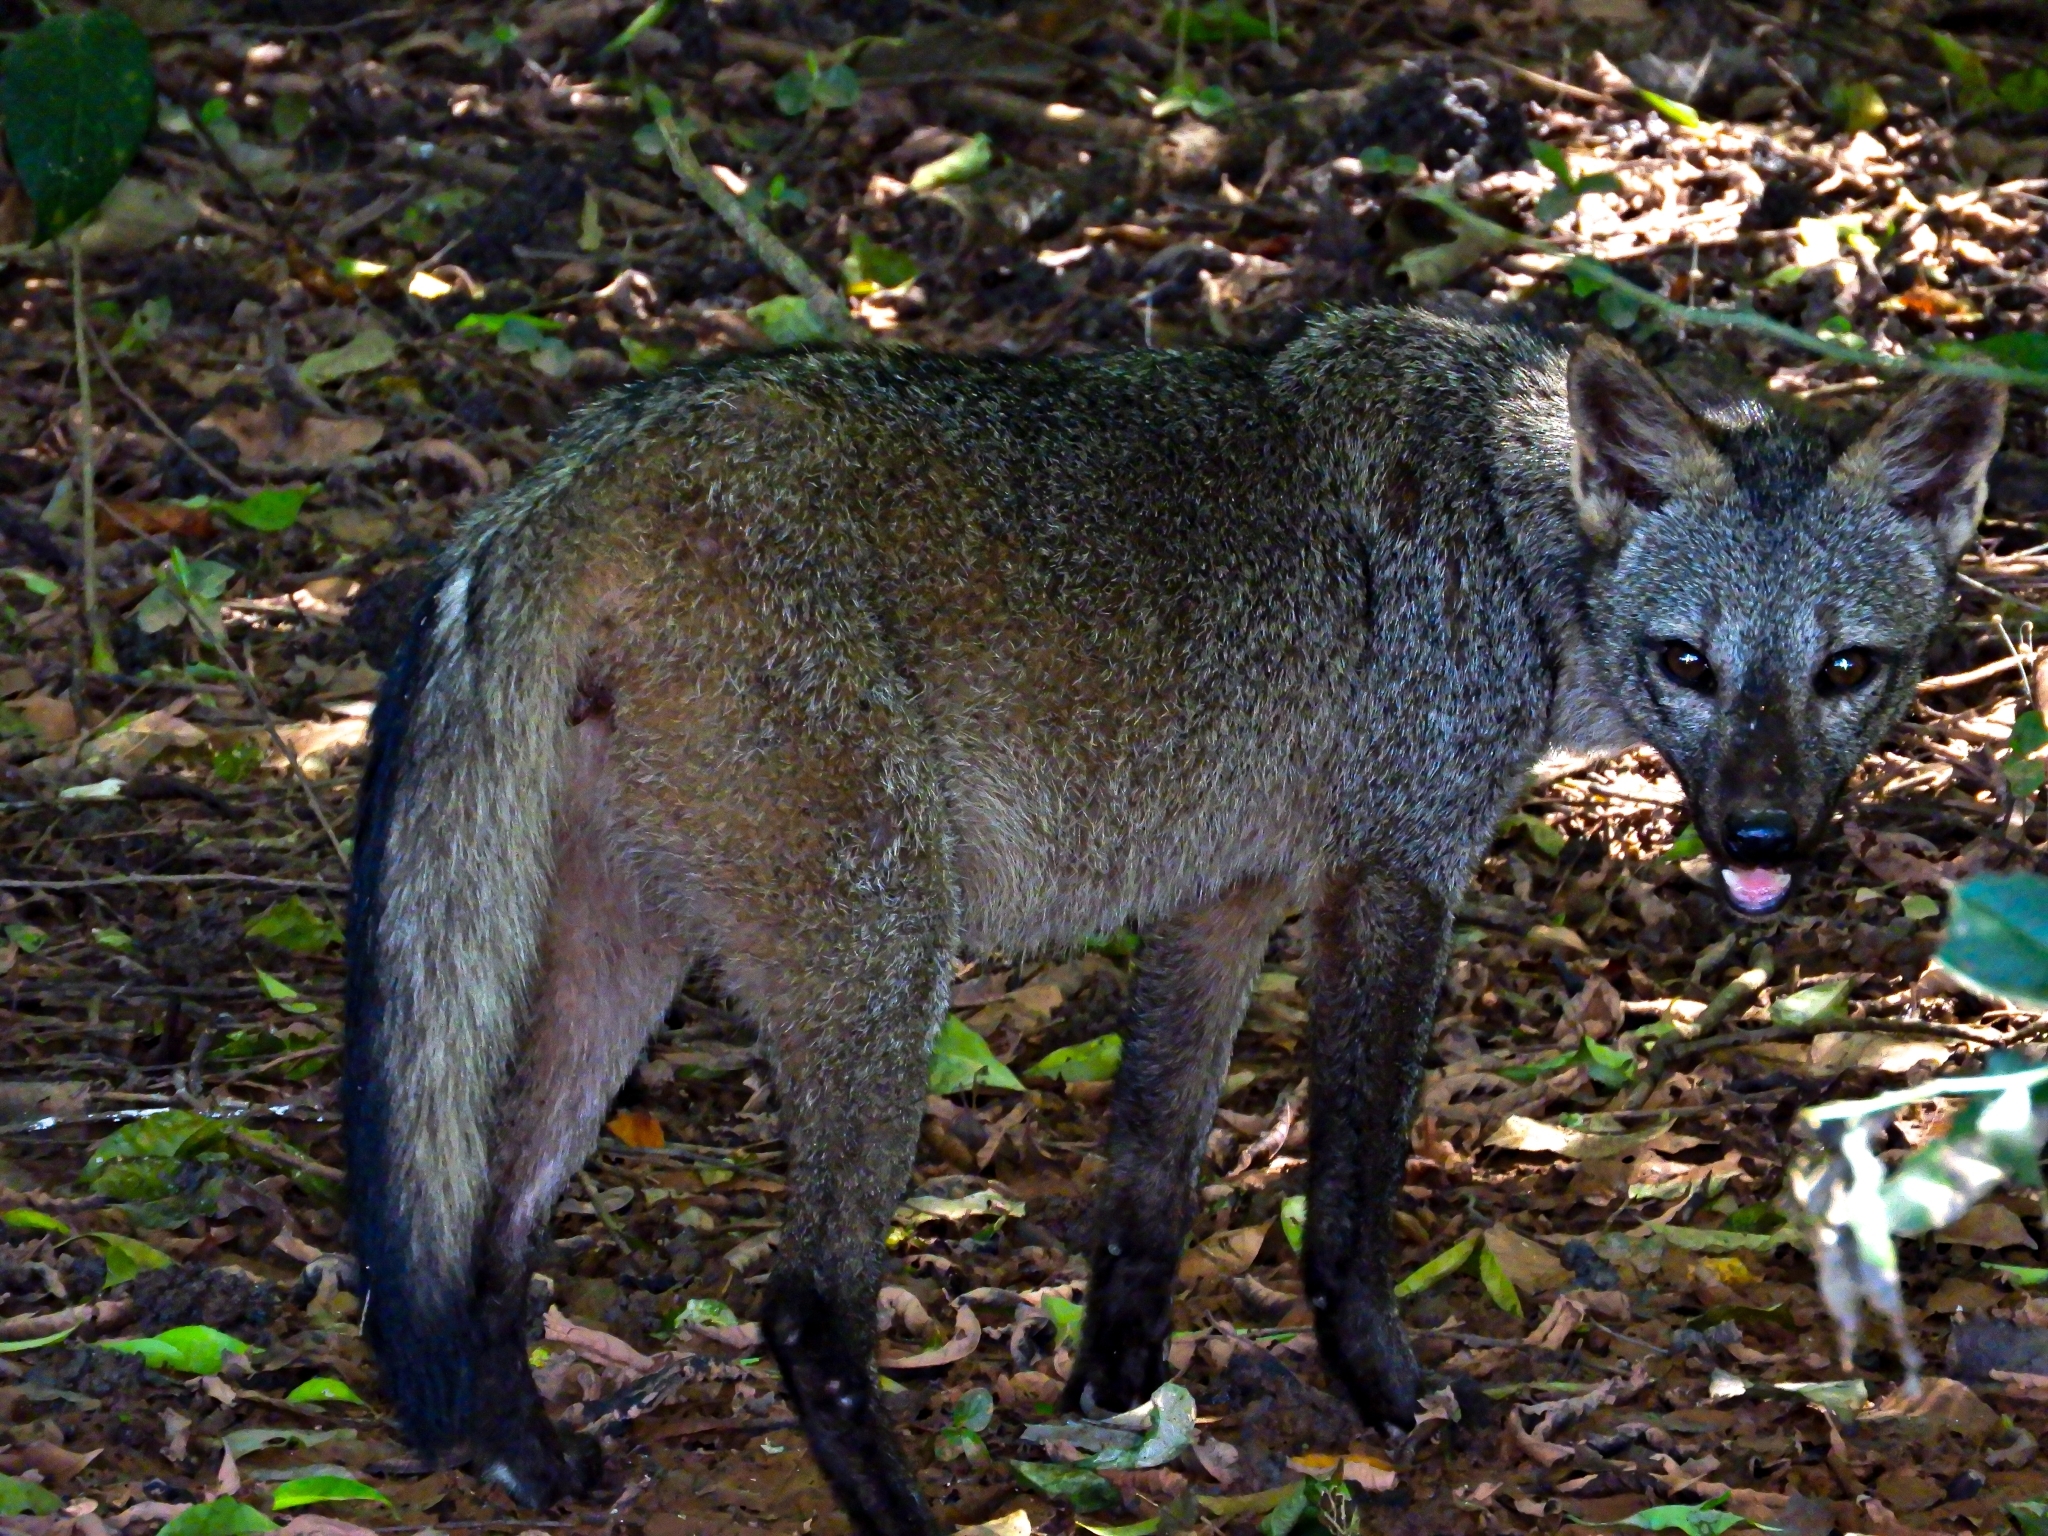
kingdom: Animalia
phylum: Chordata
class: Mammalia
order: Carnivora
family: Canidae
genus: Cerdocyon
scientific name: Cerdocyon thous
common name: Crab-eating fox
